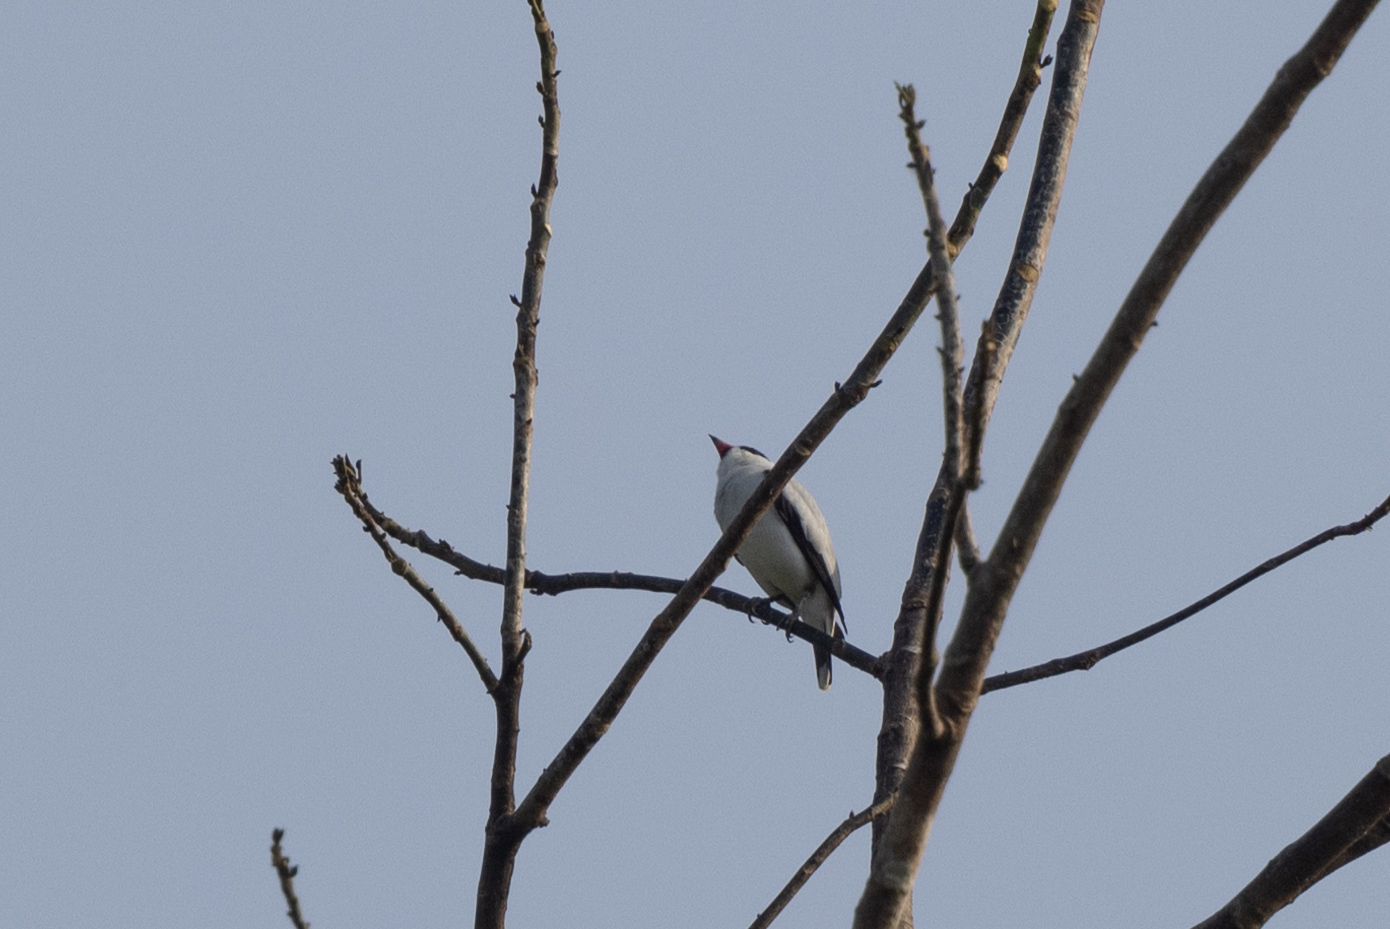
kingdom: Animalia
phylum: Chordata
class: Aves
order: Passeriformes
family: Cotingidae
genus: Tityra
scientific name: Tityra semifasciata
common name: Masked tityra
